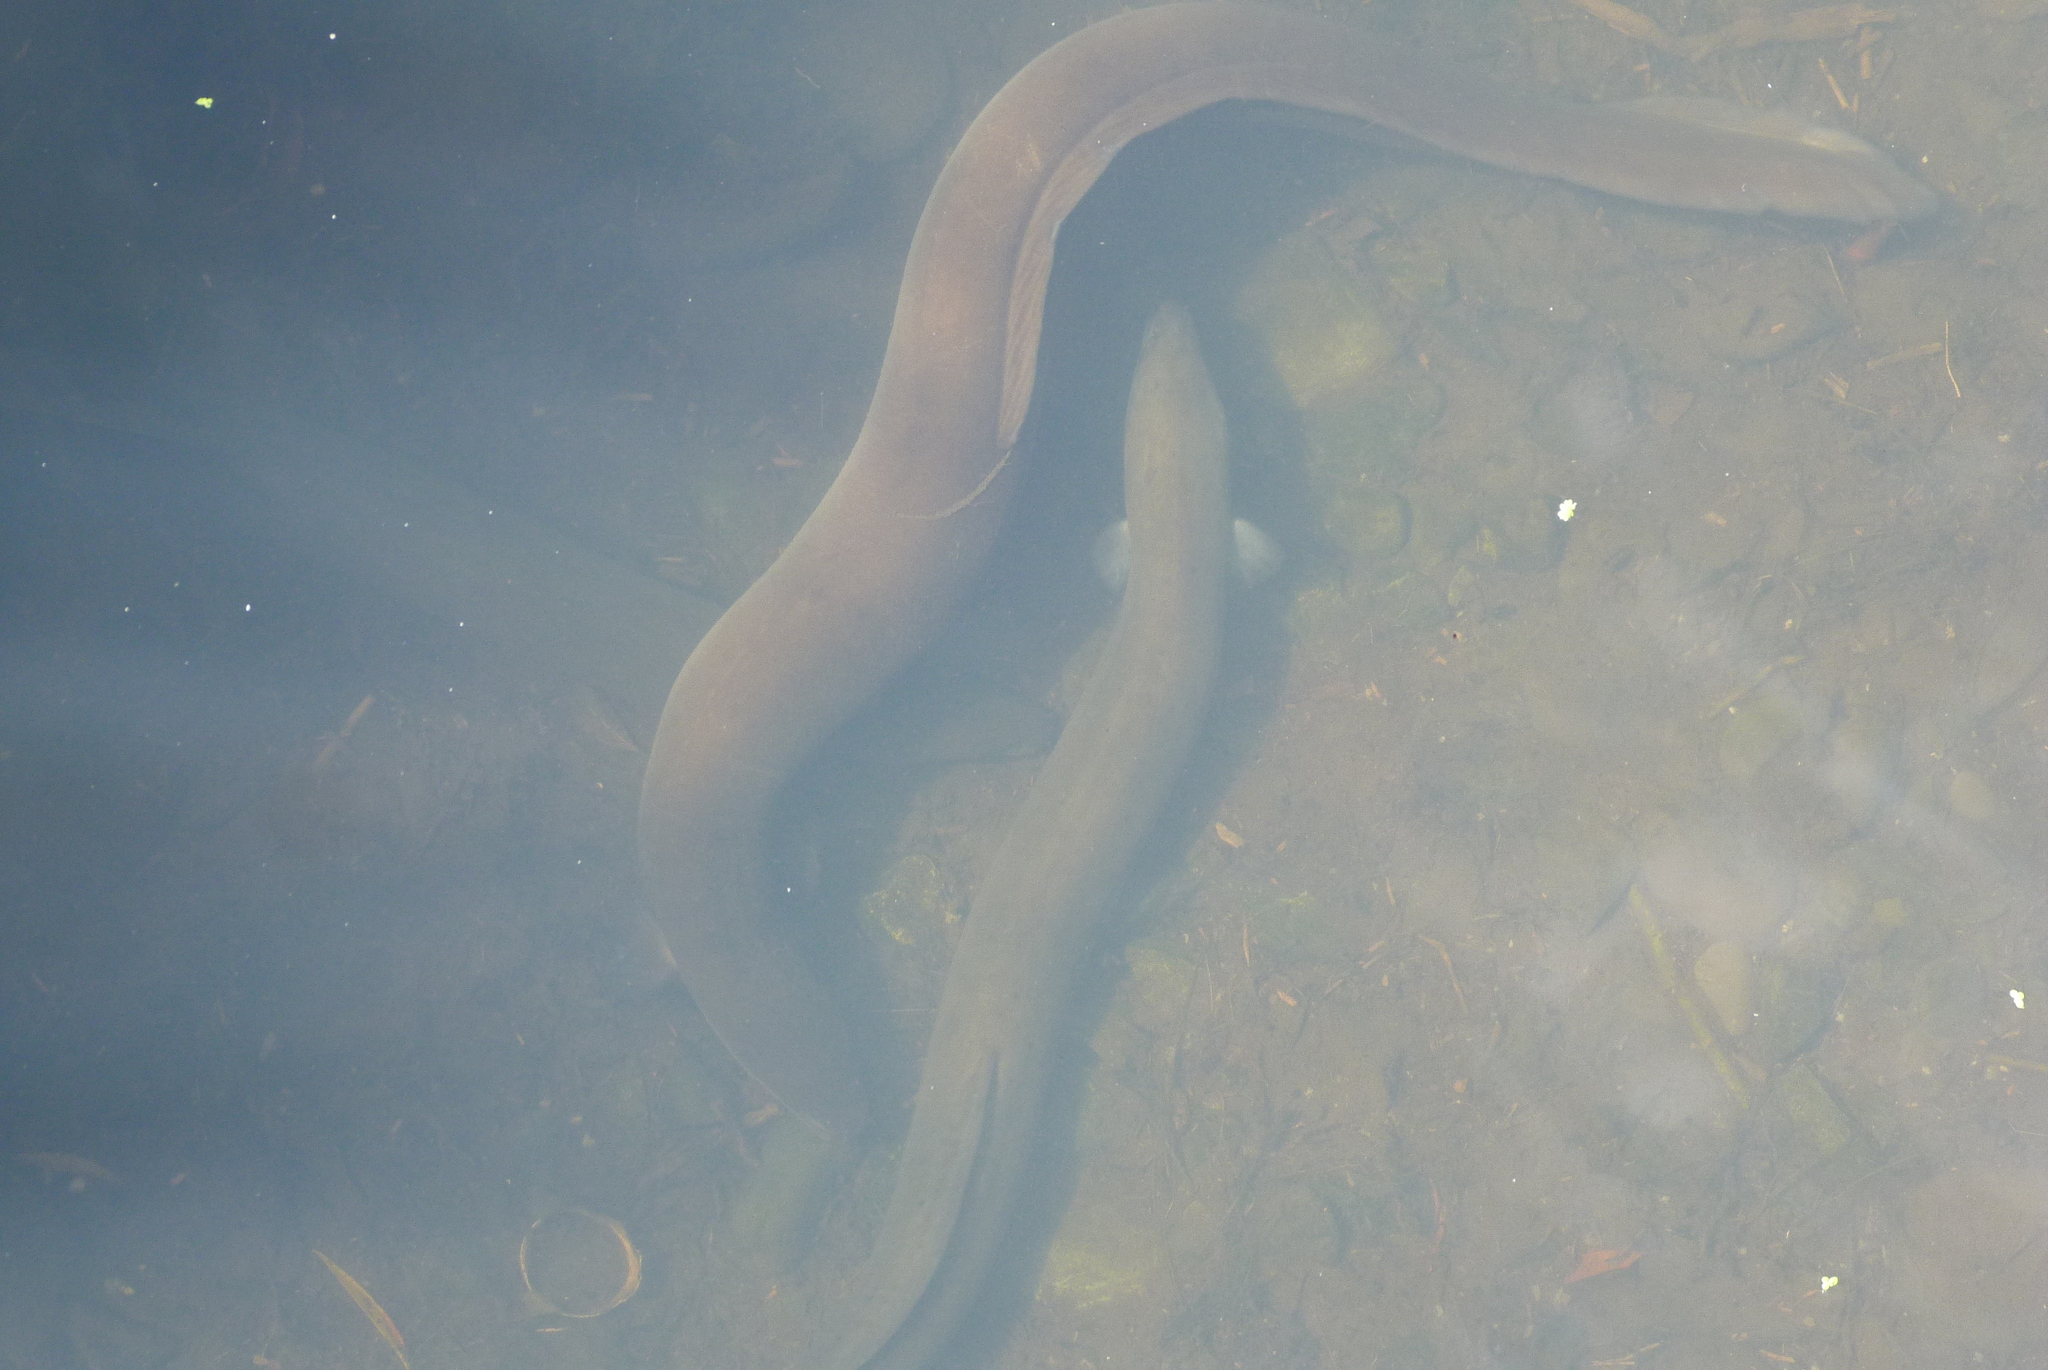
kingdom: Animalia
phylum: Chordata
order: Anguilliformes
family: Anguillidae
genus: Anguilla
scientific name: Anguilla australis
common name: Shortfin eel
